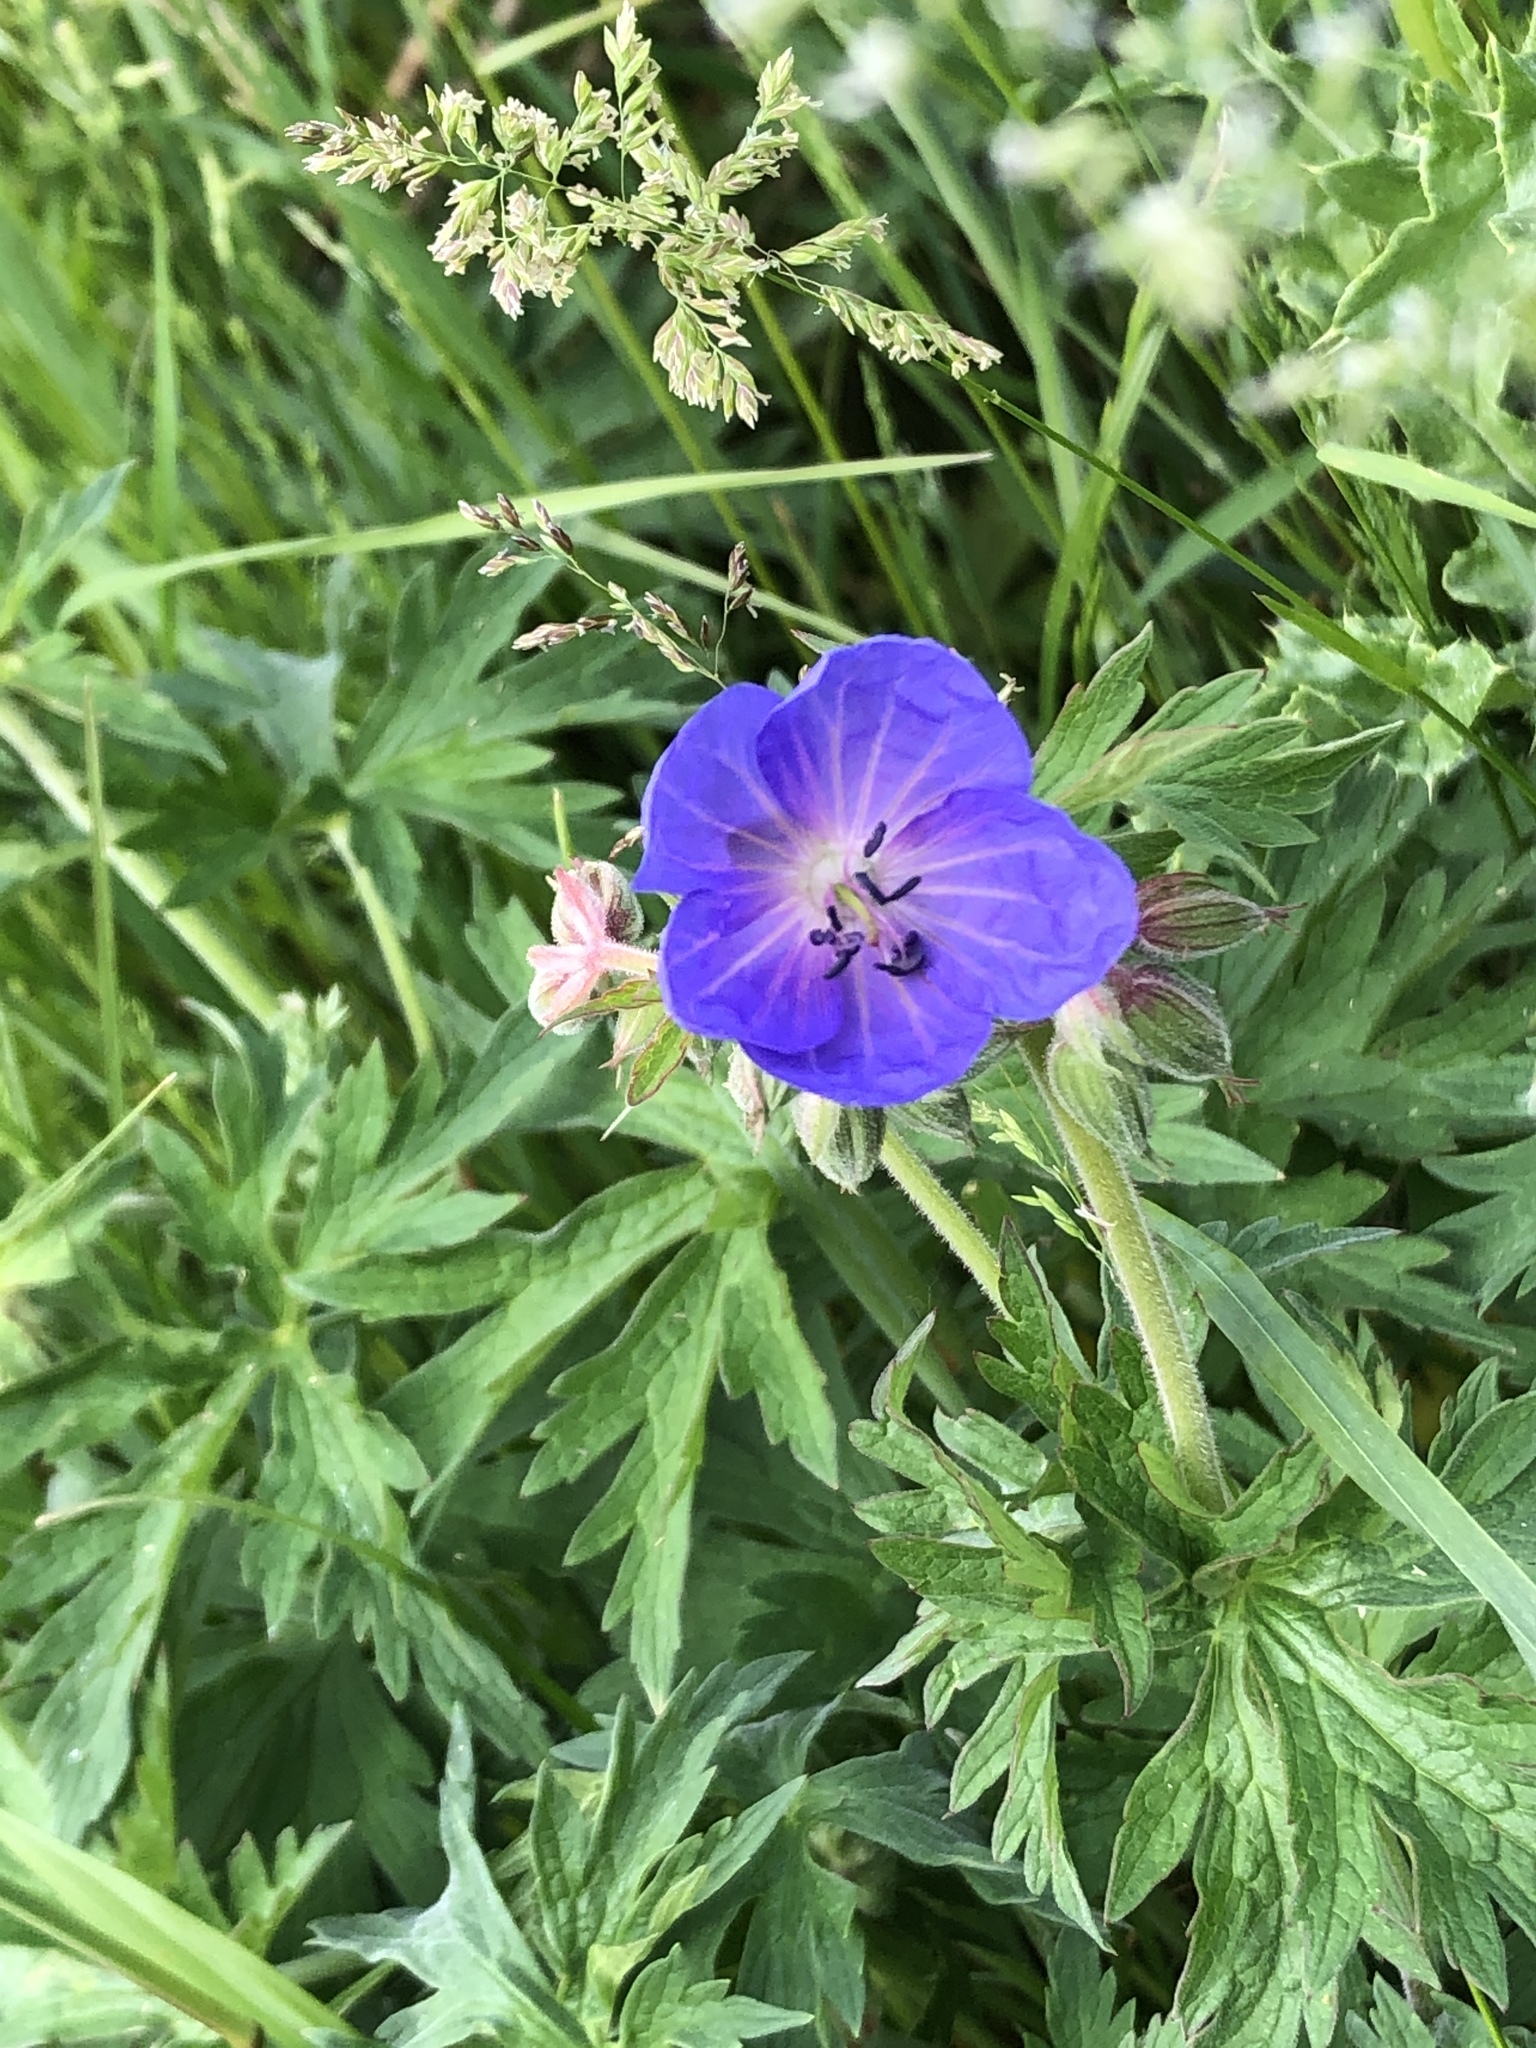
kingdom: Plantae
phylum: Tracheophyta
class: Magnoliopsida
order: Geraniales
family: Geraniaceae
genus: Geranium
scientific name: Geranium pratense
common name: Meadow crane's-bill
